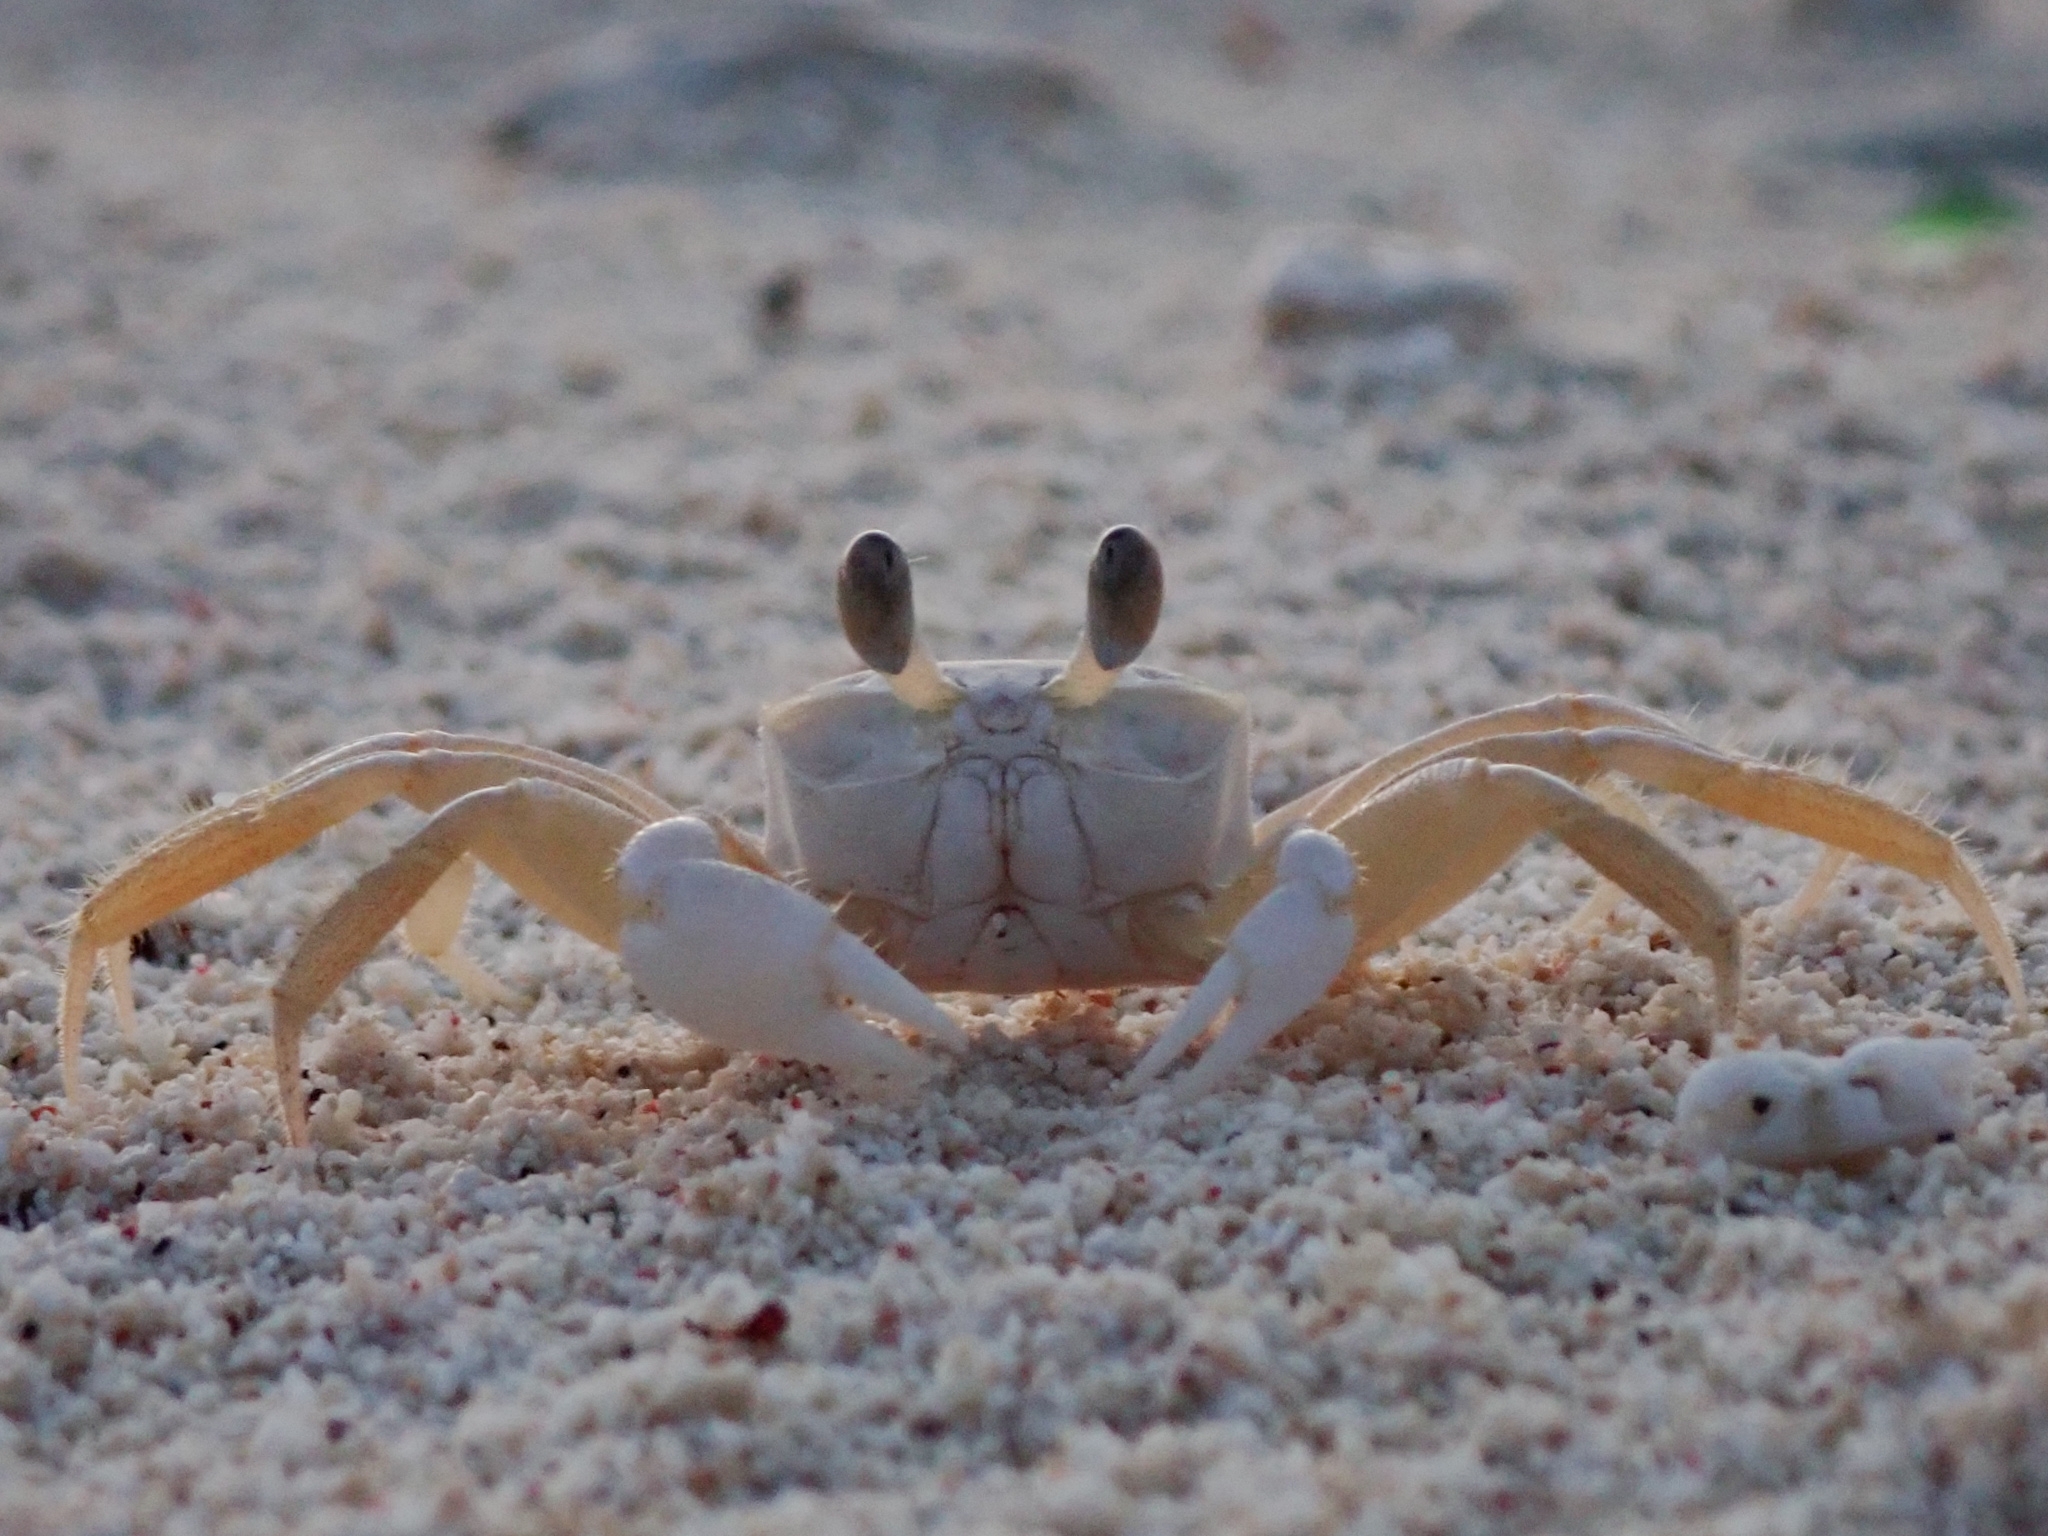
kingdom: Animalia
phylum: Arthropoda
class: Malacostraca
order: Decapoda
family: Ocypodidae
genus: Ocypode
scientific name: Ocypode quadrata
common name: Ghost crab
